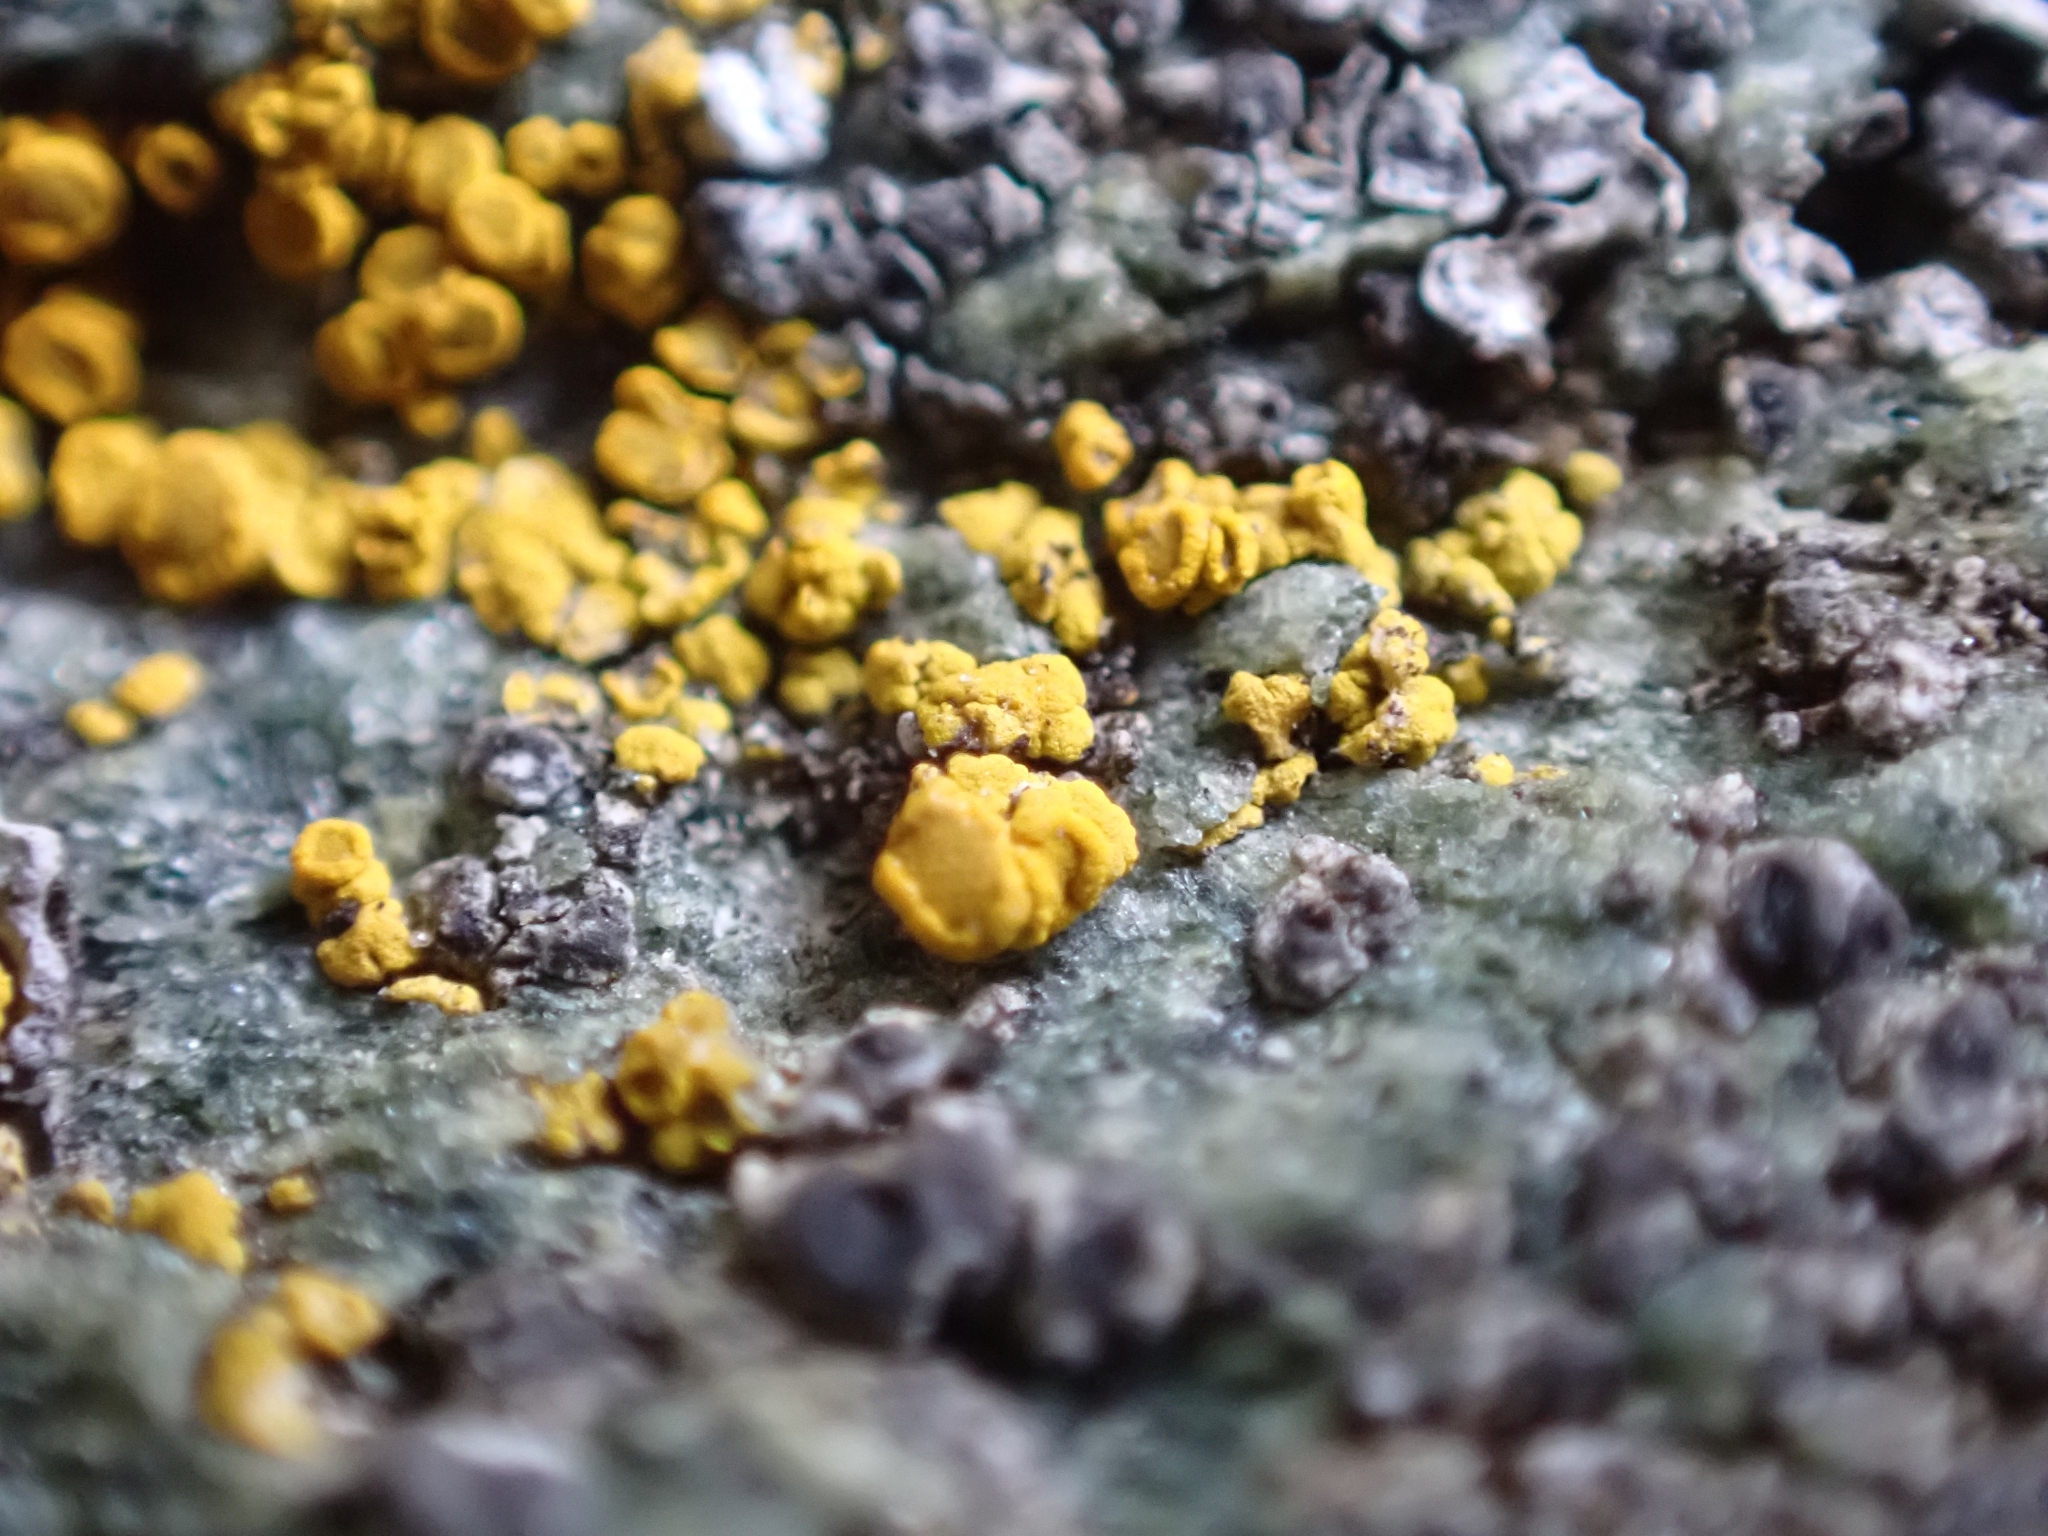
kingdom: Fungi
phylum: Ascomycota
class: Candelariomycetes
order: Candelariales
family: Candelariaceae
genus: Candelariella
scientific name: Candelariella vitellina
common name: Common goldspeck
